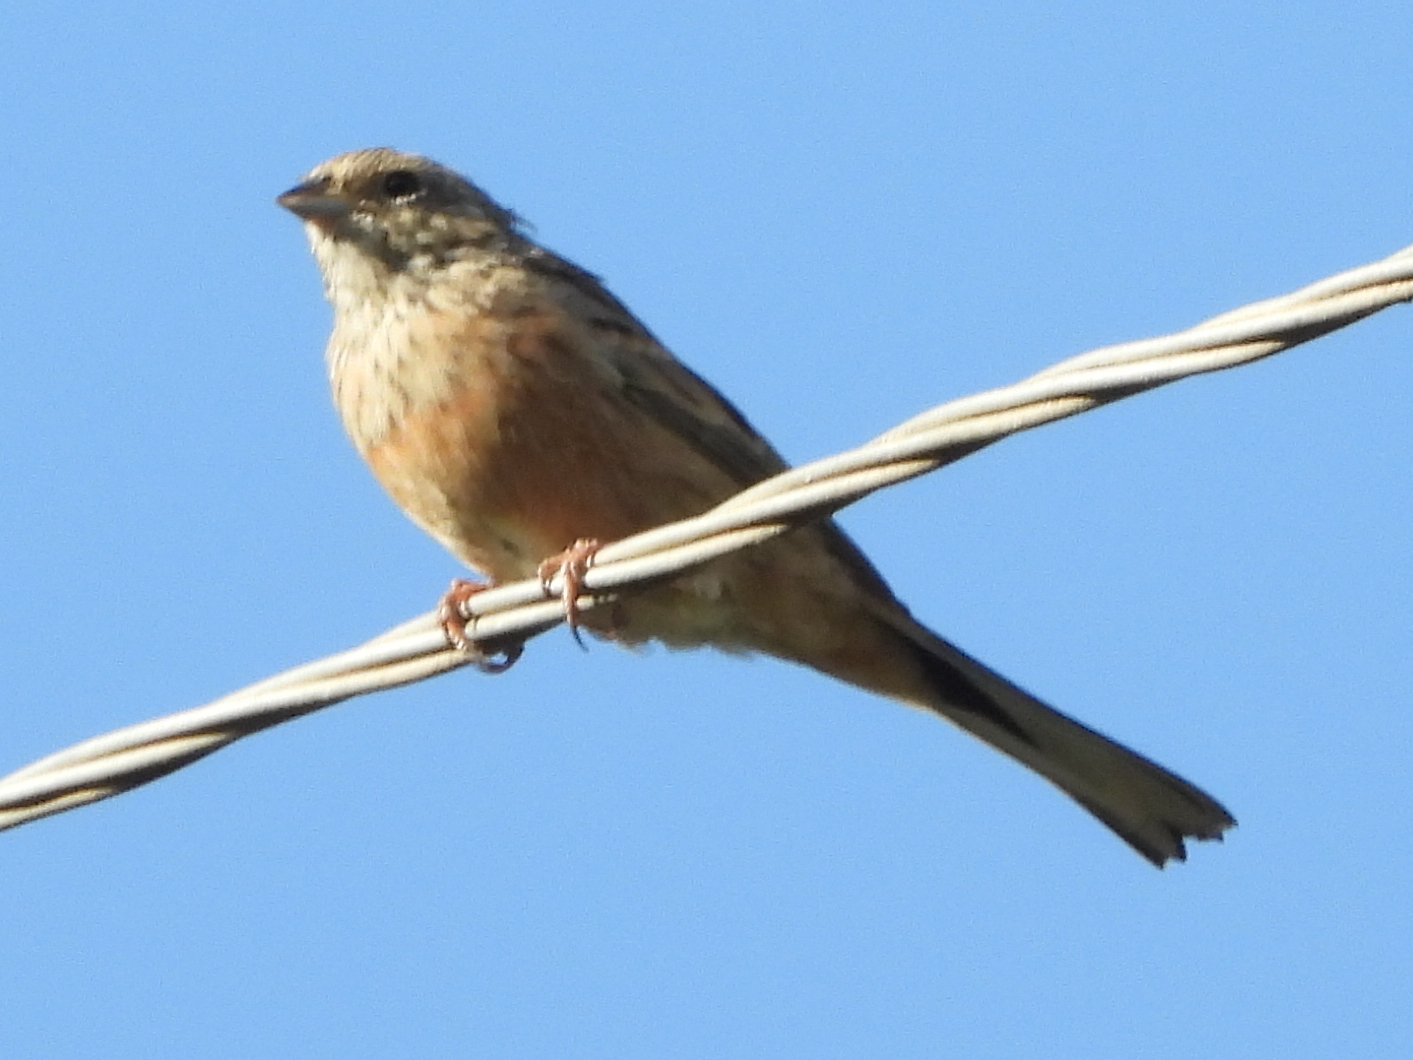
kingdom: Animalia
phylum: Chordata
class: Aves
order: Passeriformes
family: Emberizidae
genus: Emberiza
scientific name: Emberiza cia
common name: Rock bunting
